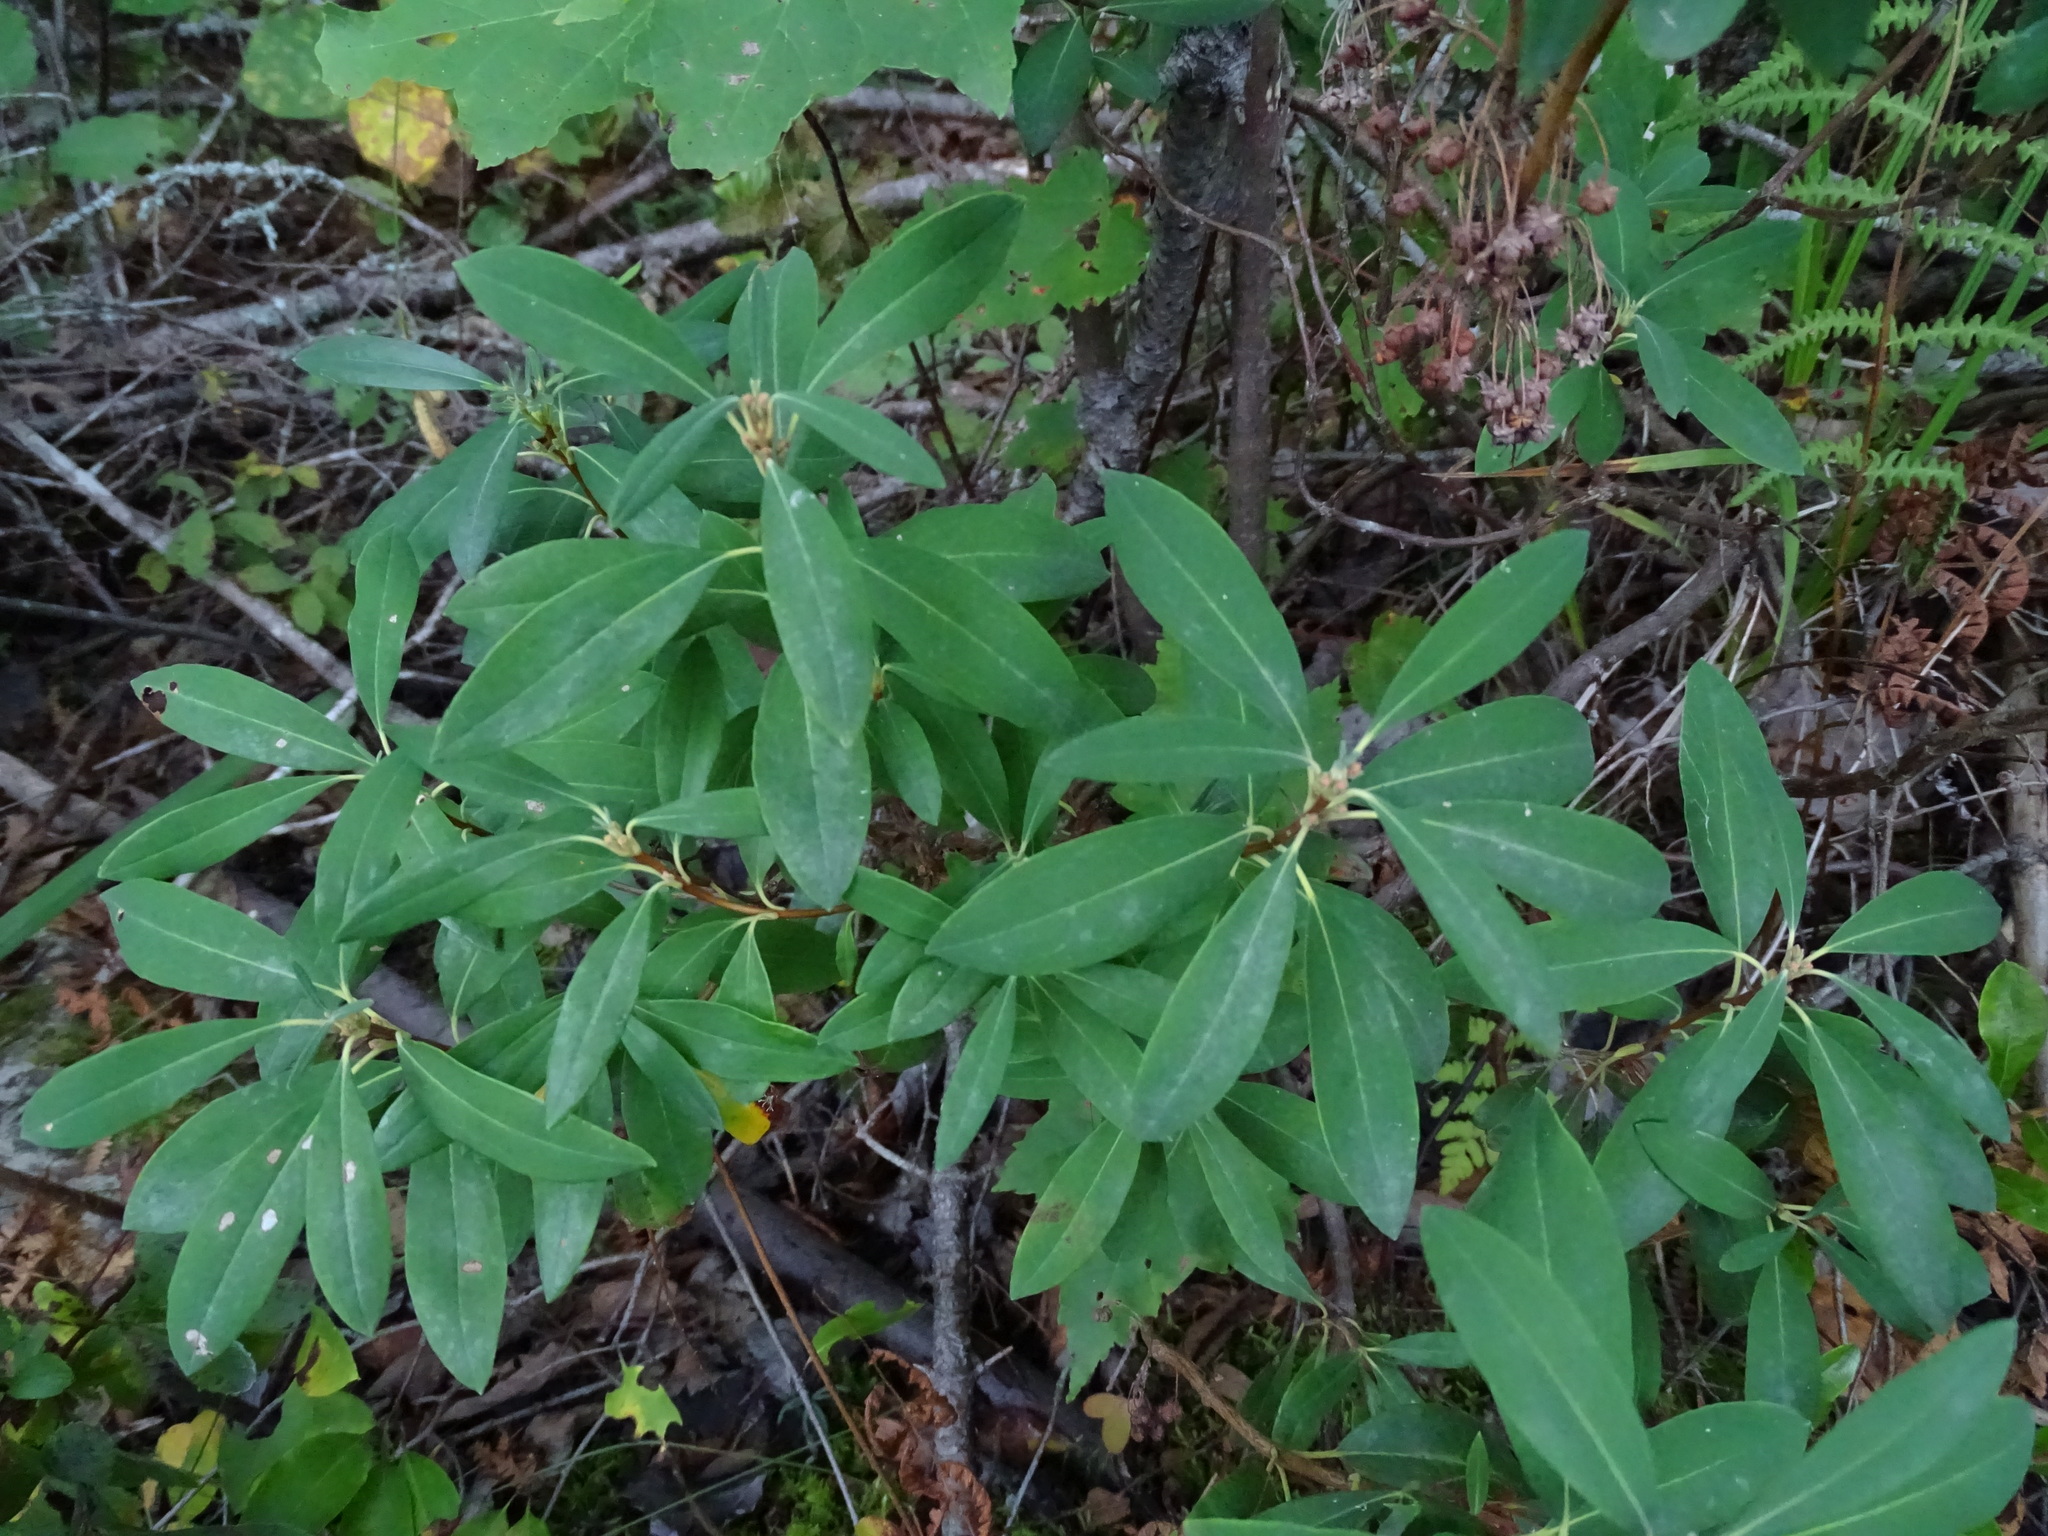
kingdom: Plantae
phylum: Tracheophyta
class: Magnoliopsida
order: Ericales
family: Ericaceae
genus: Kalmia
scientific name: Kalmia angustifolia
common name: Sheep-laurel
